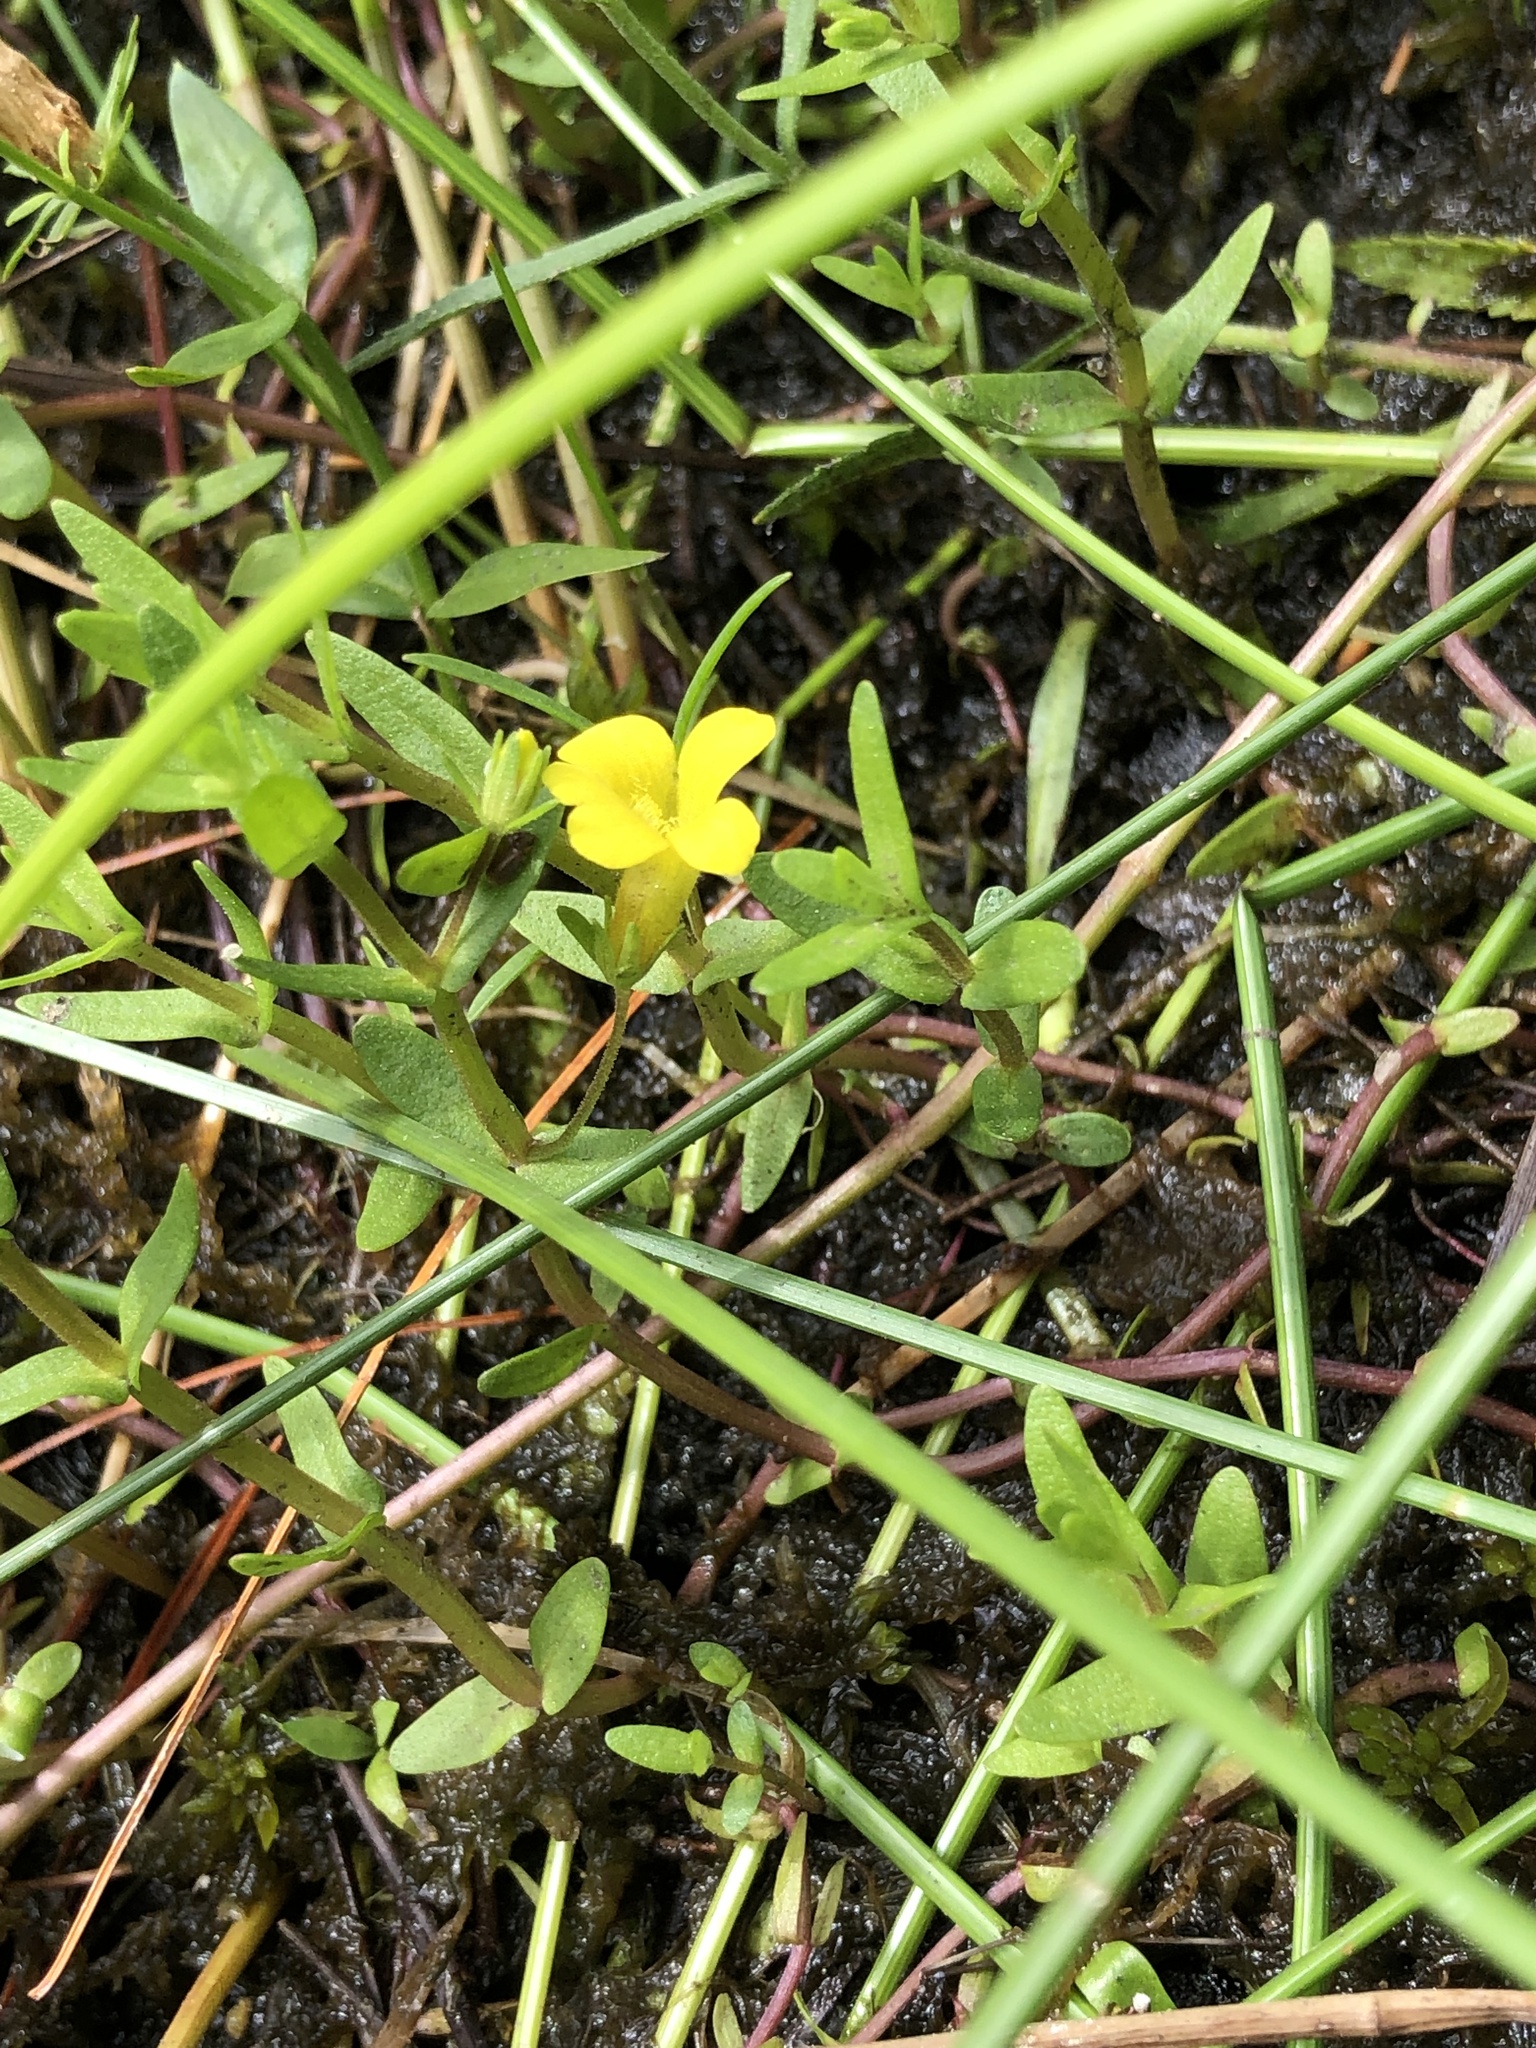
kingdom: Plantae
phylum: Tracheophyta
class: Magnoliopsida
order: Lamiales
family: Plantaginaceae
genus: Gratiola
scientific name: Gratiola lutea
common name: Golden hedge-hyssop
